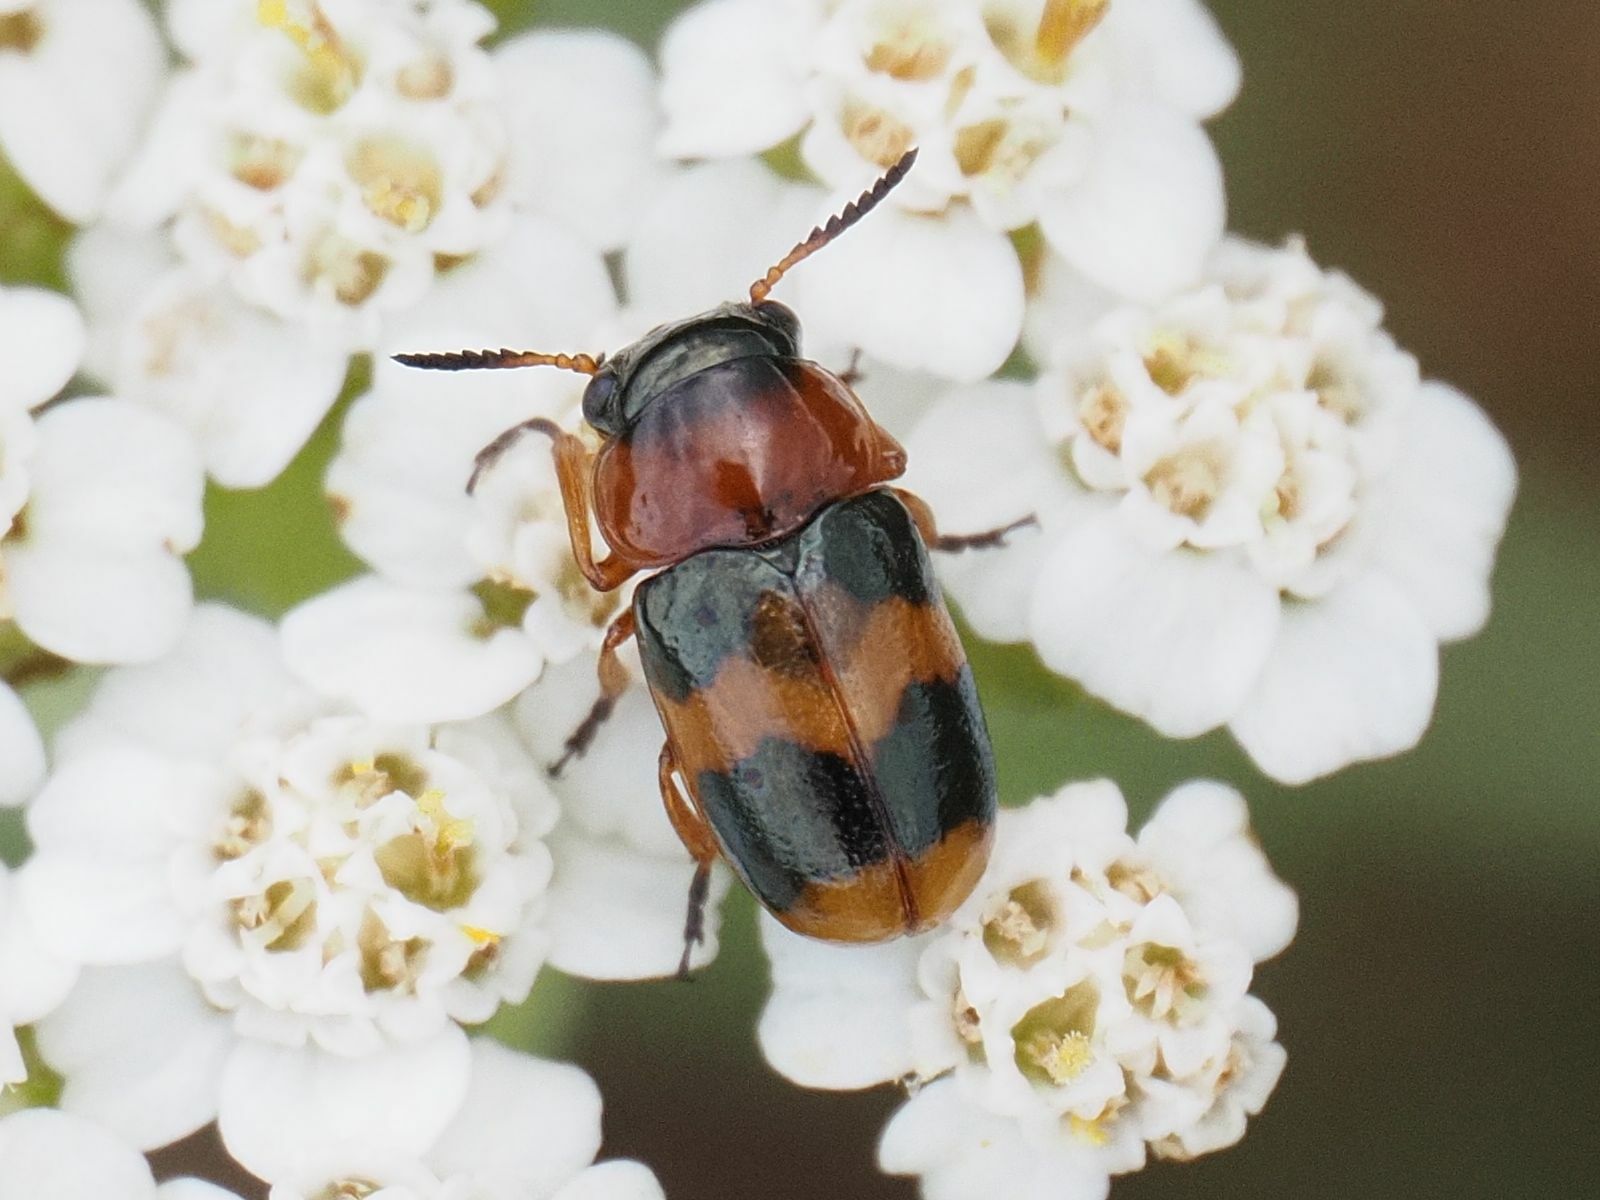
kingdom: Animalia
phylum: Arthropoda
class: Insecta
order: Coleoptera
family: Chrysomelidae
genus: Coptocephala
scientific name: Coptocephala unifasciata
